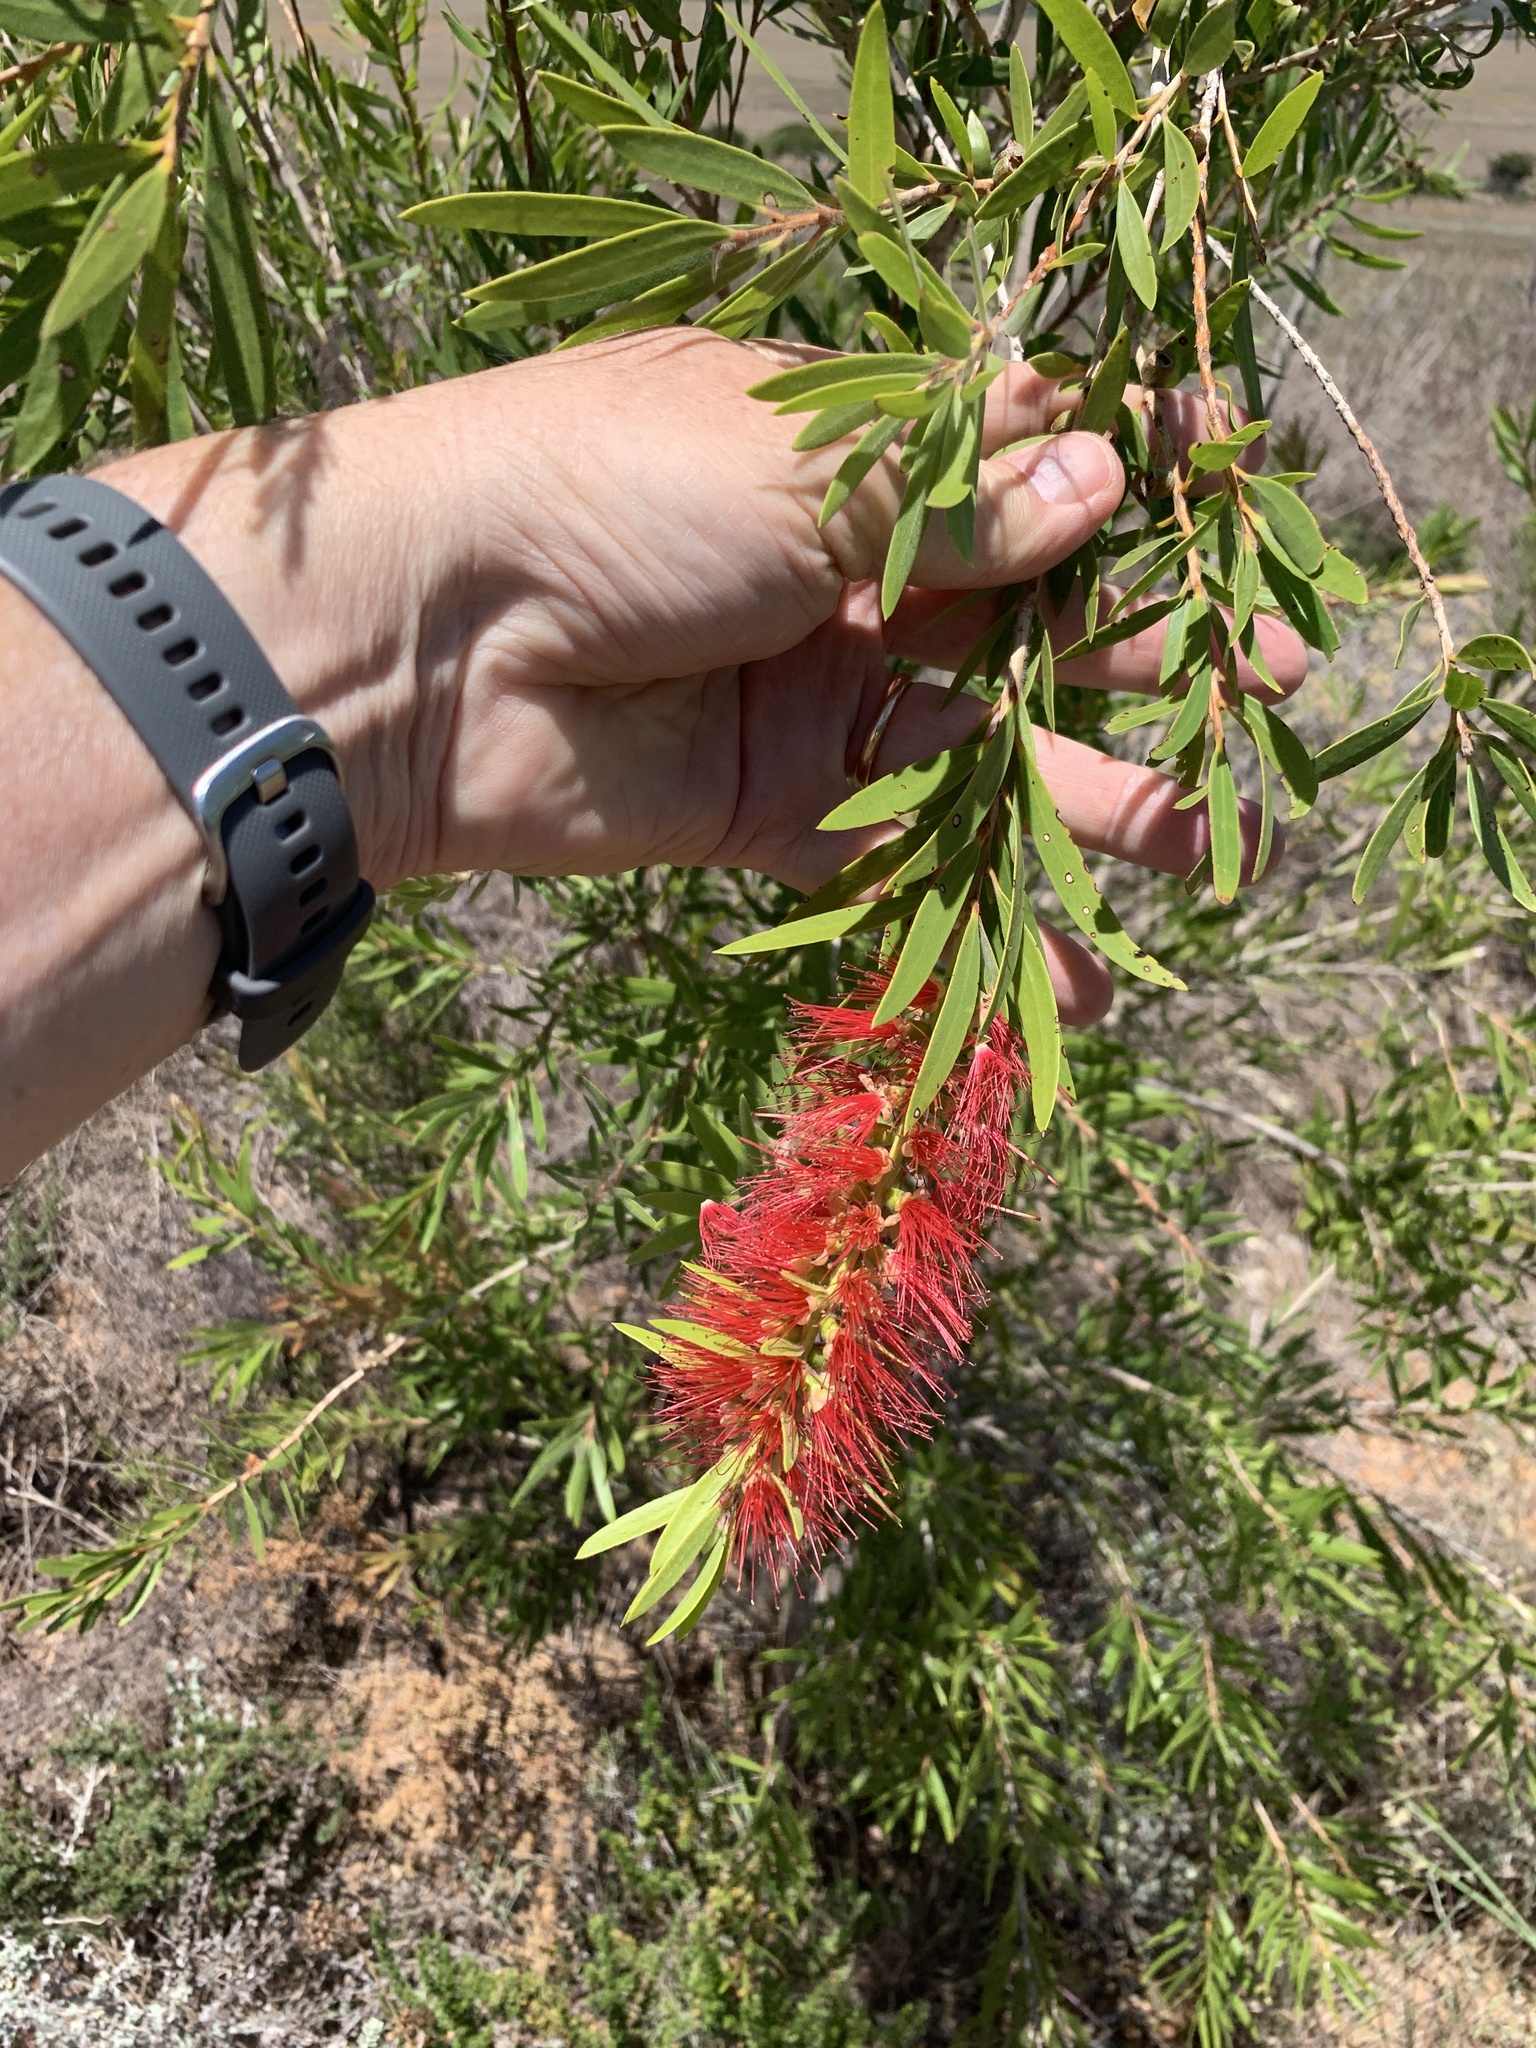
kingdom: Plantae
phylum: Tracheophyta
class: Magnoliopsida
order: Myrtales
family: Myrtaceae
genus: Callistemon
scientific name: Callistemon viminalis
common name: Drooping bottlebrush
